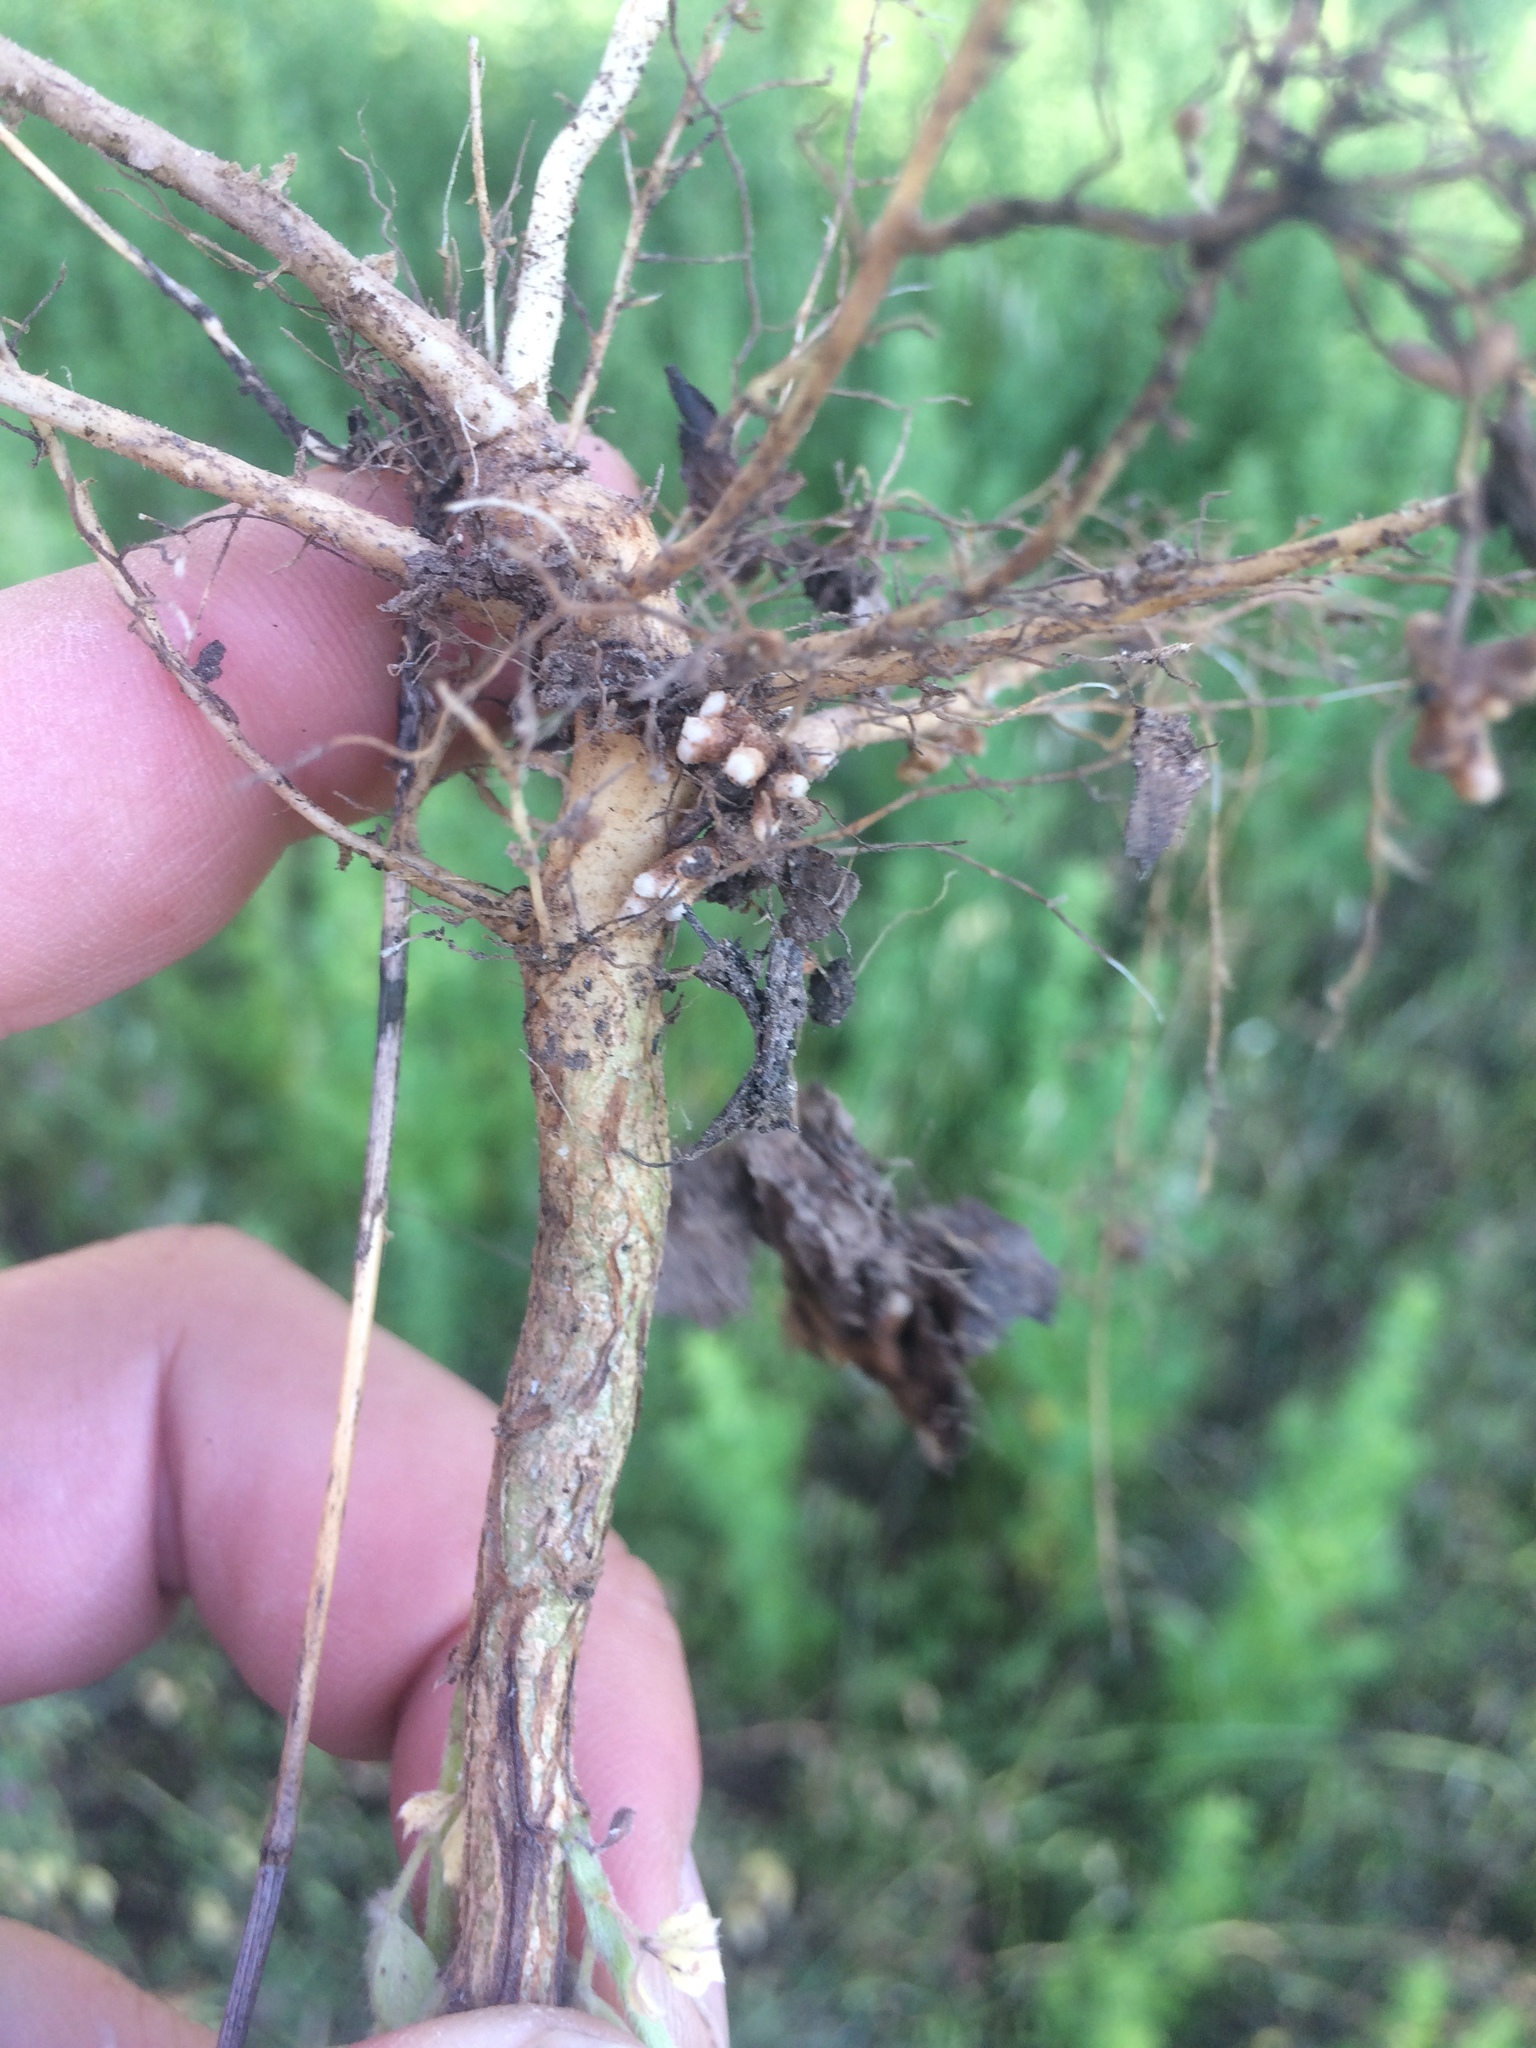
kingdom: Plantae
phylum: Tracheophyta
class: Magnoliopsida
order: Fabales
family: Fabaceae
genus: Genista
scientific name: Genista monspessulana
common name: Montpellier broom
